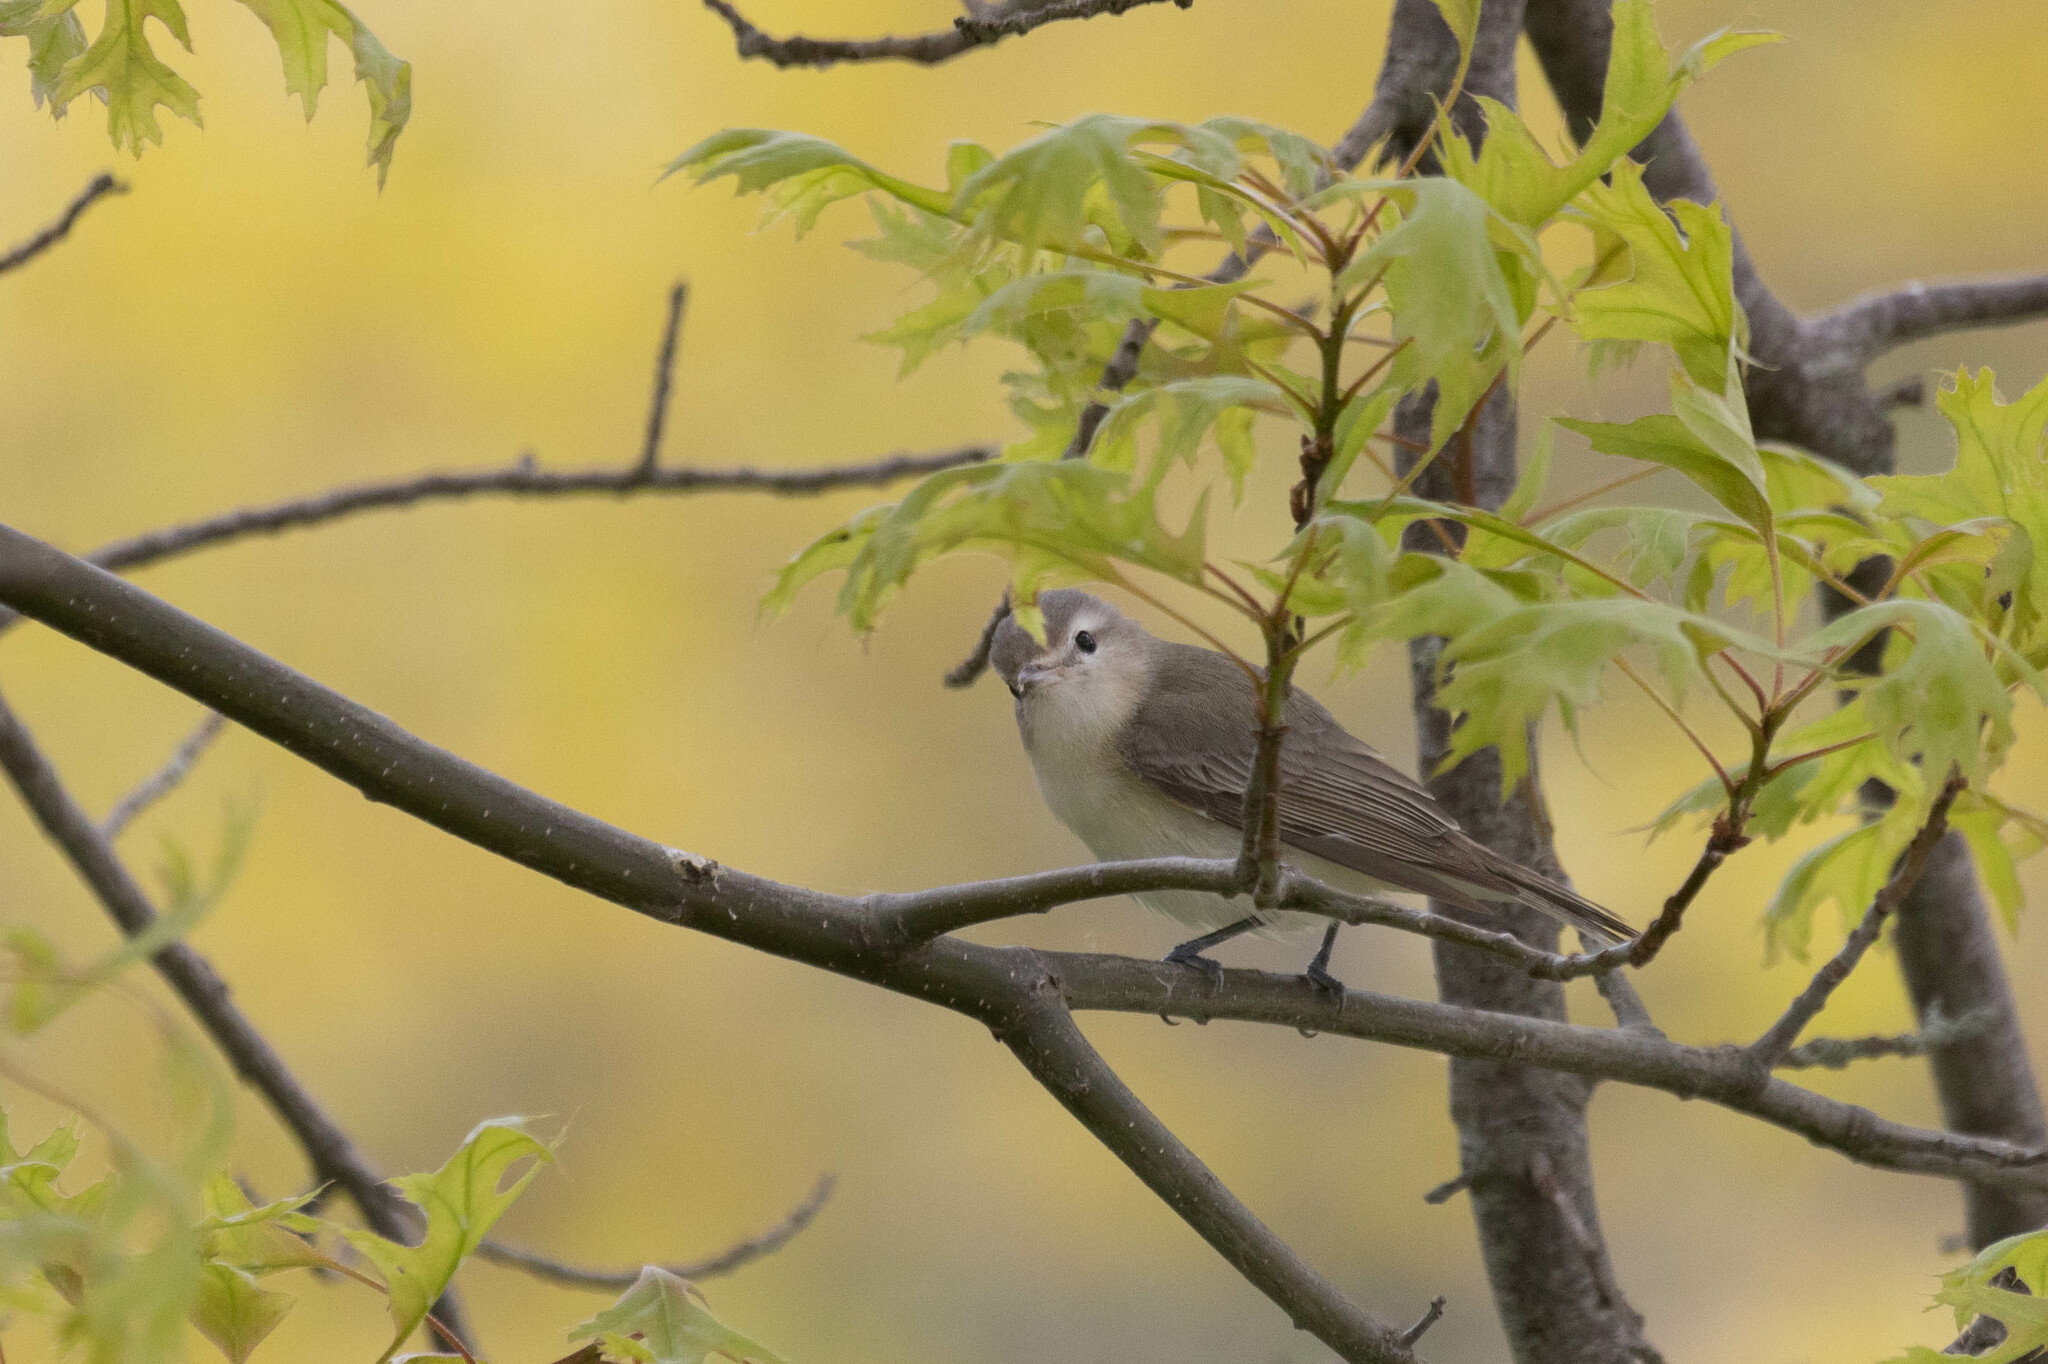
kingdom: Animalia
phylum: Chordata
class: Aves
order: Passeriformes
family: Vireonidae
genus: Vireo
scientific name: Vireo gilvus
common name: Warbling vireo
